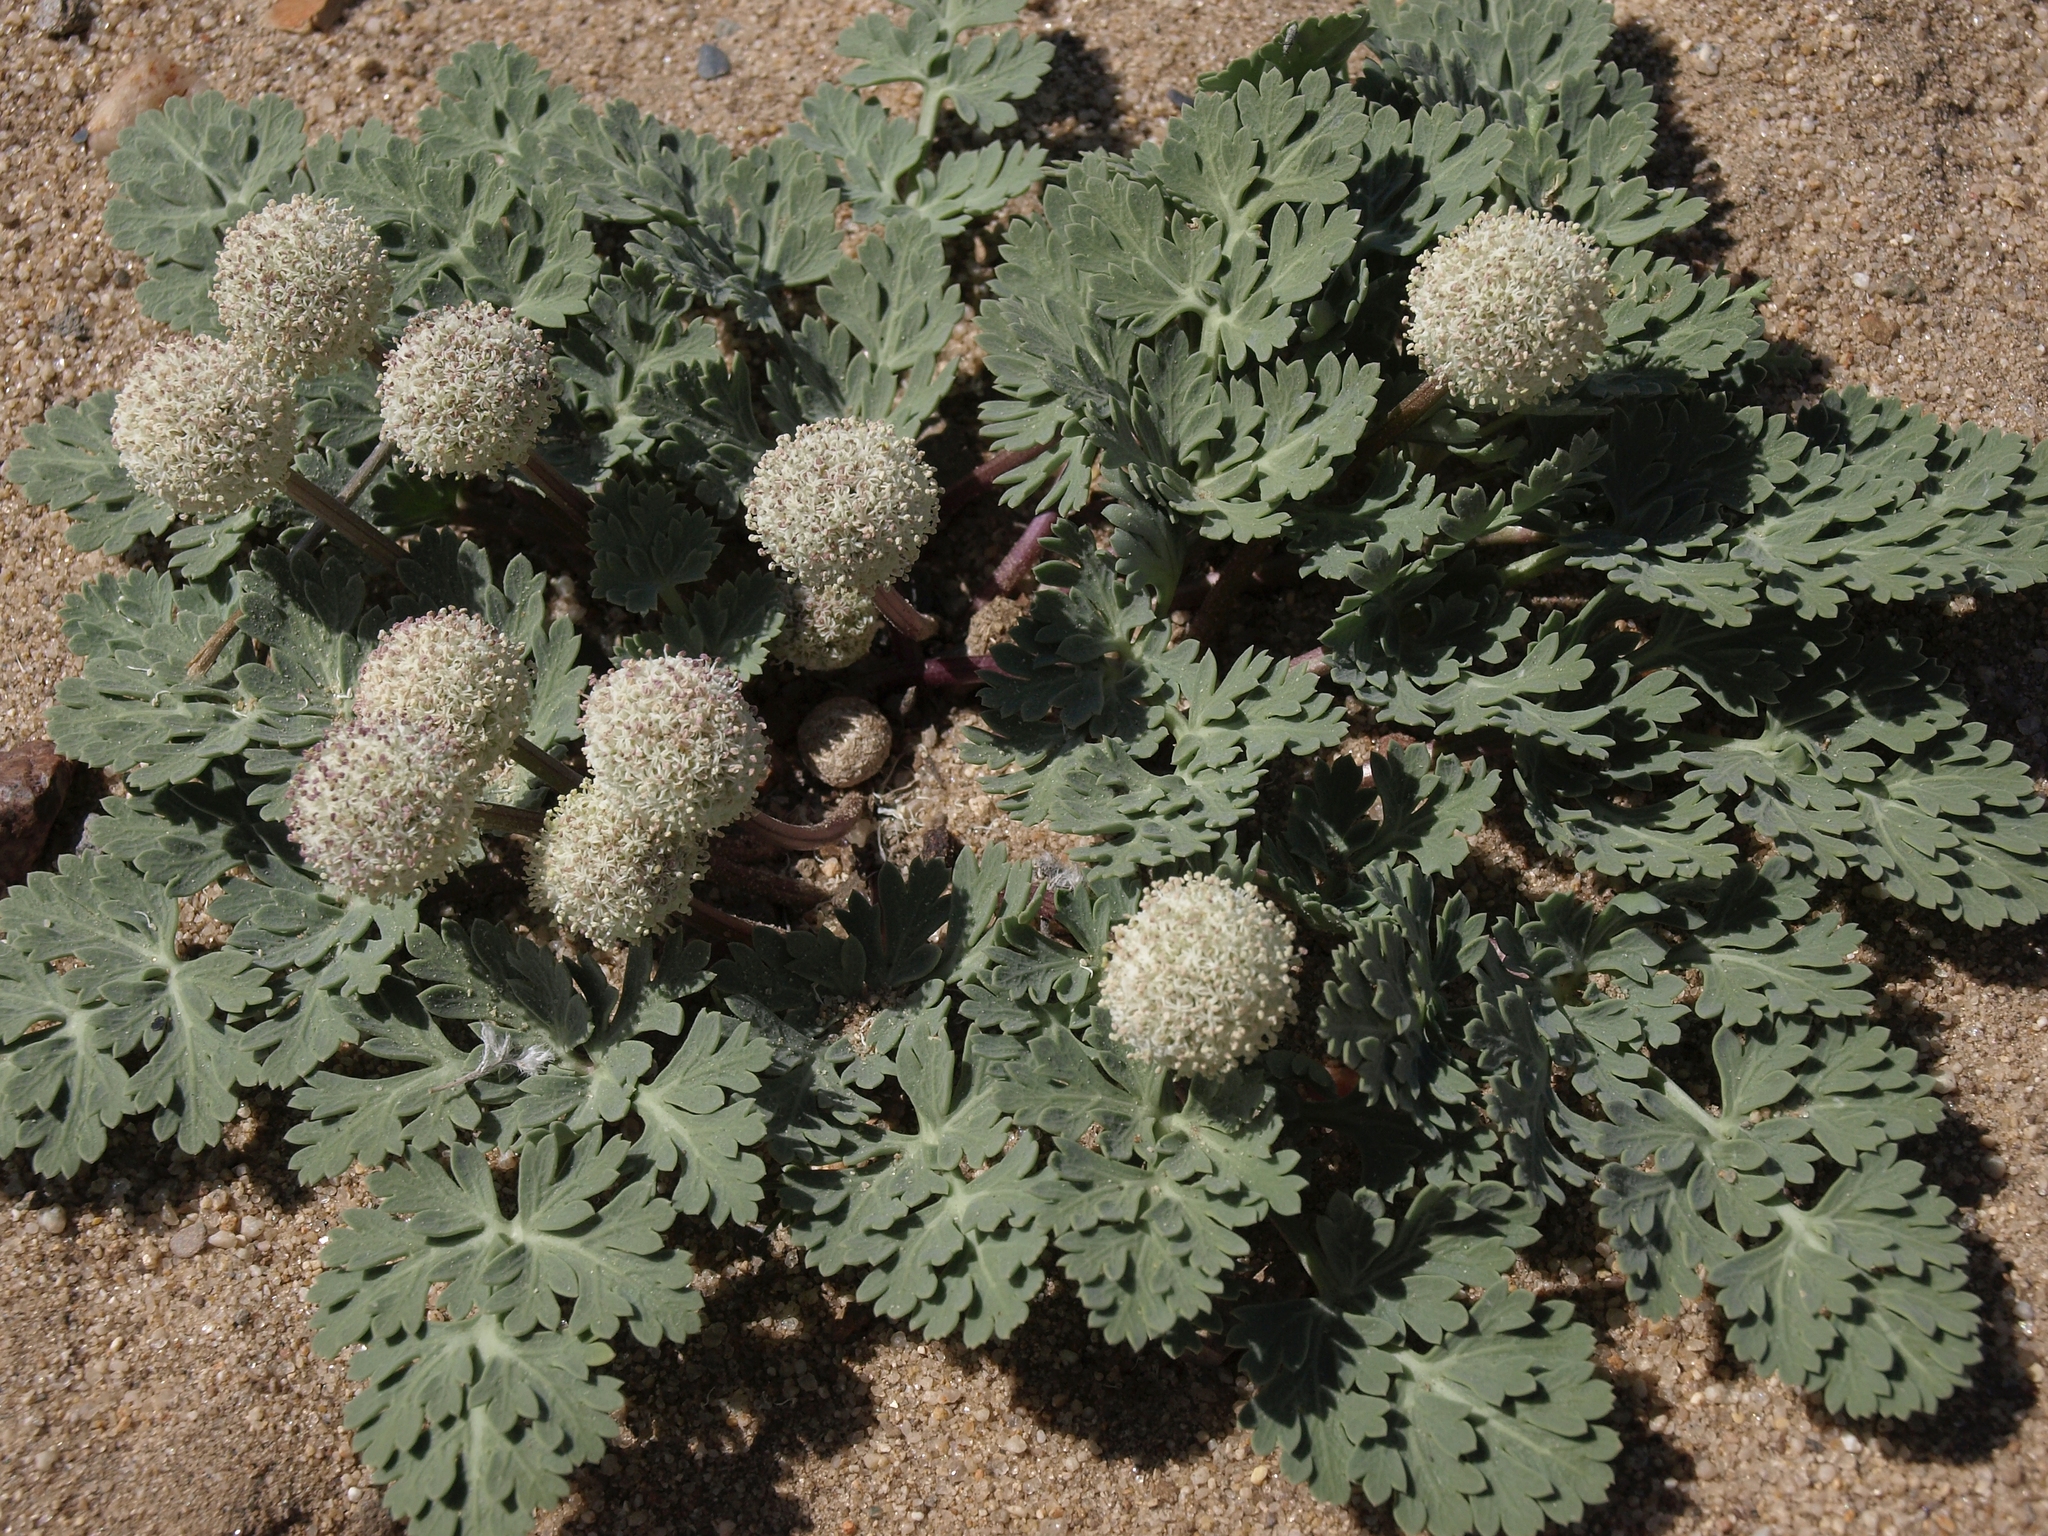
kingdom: Plantae
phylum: Tracheophyta
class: Magnoliopsida
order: Apiales
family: Apiaceae
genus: Cymopterus
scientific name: Cymopterus globosus
